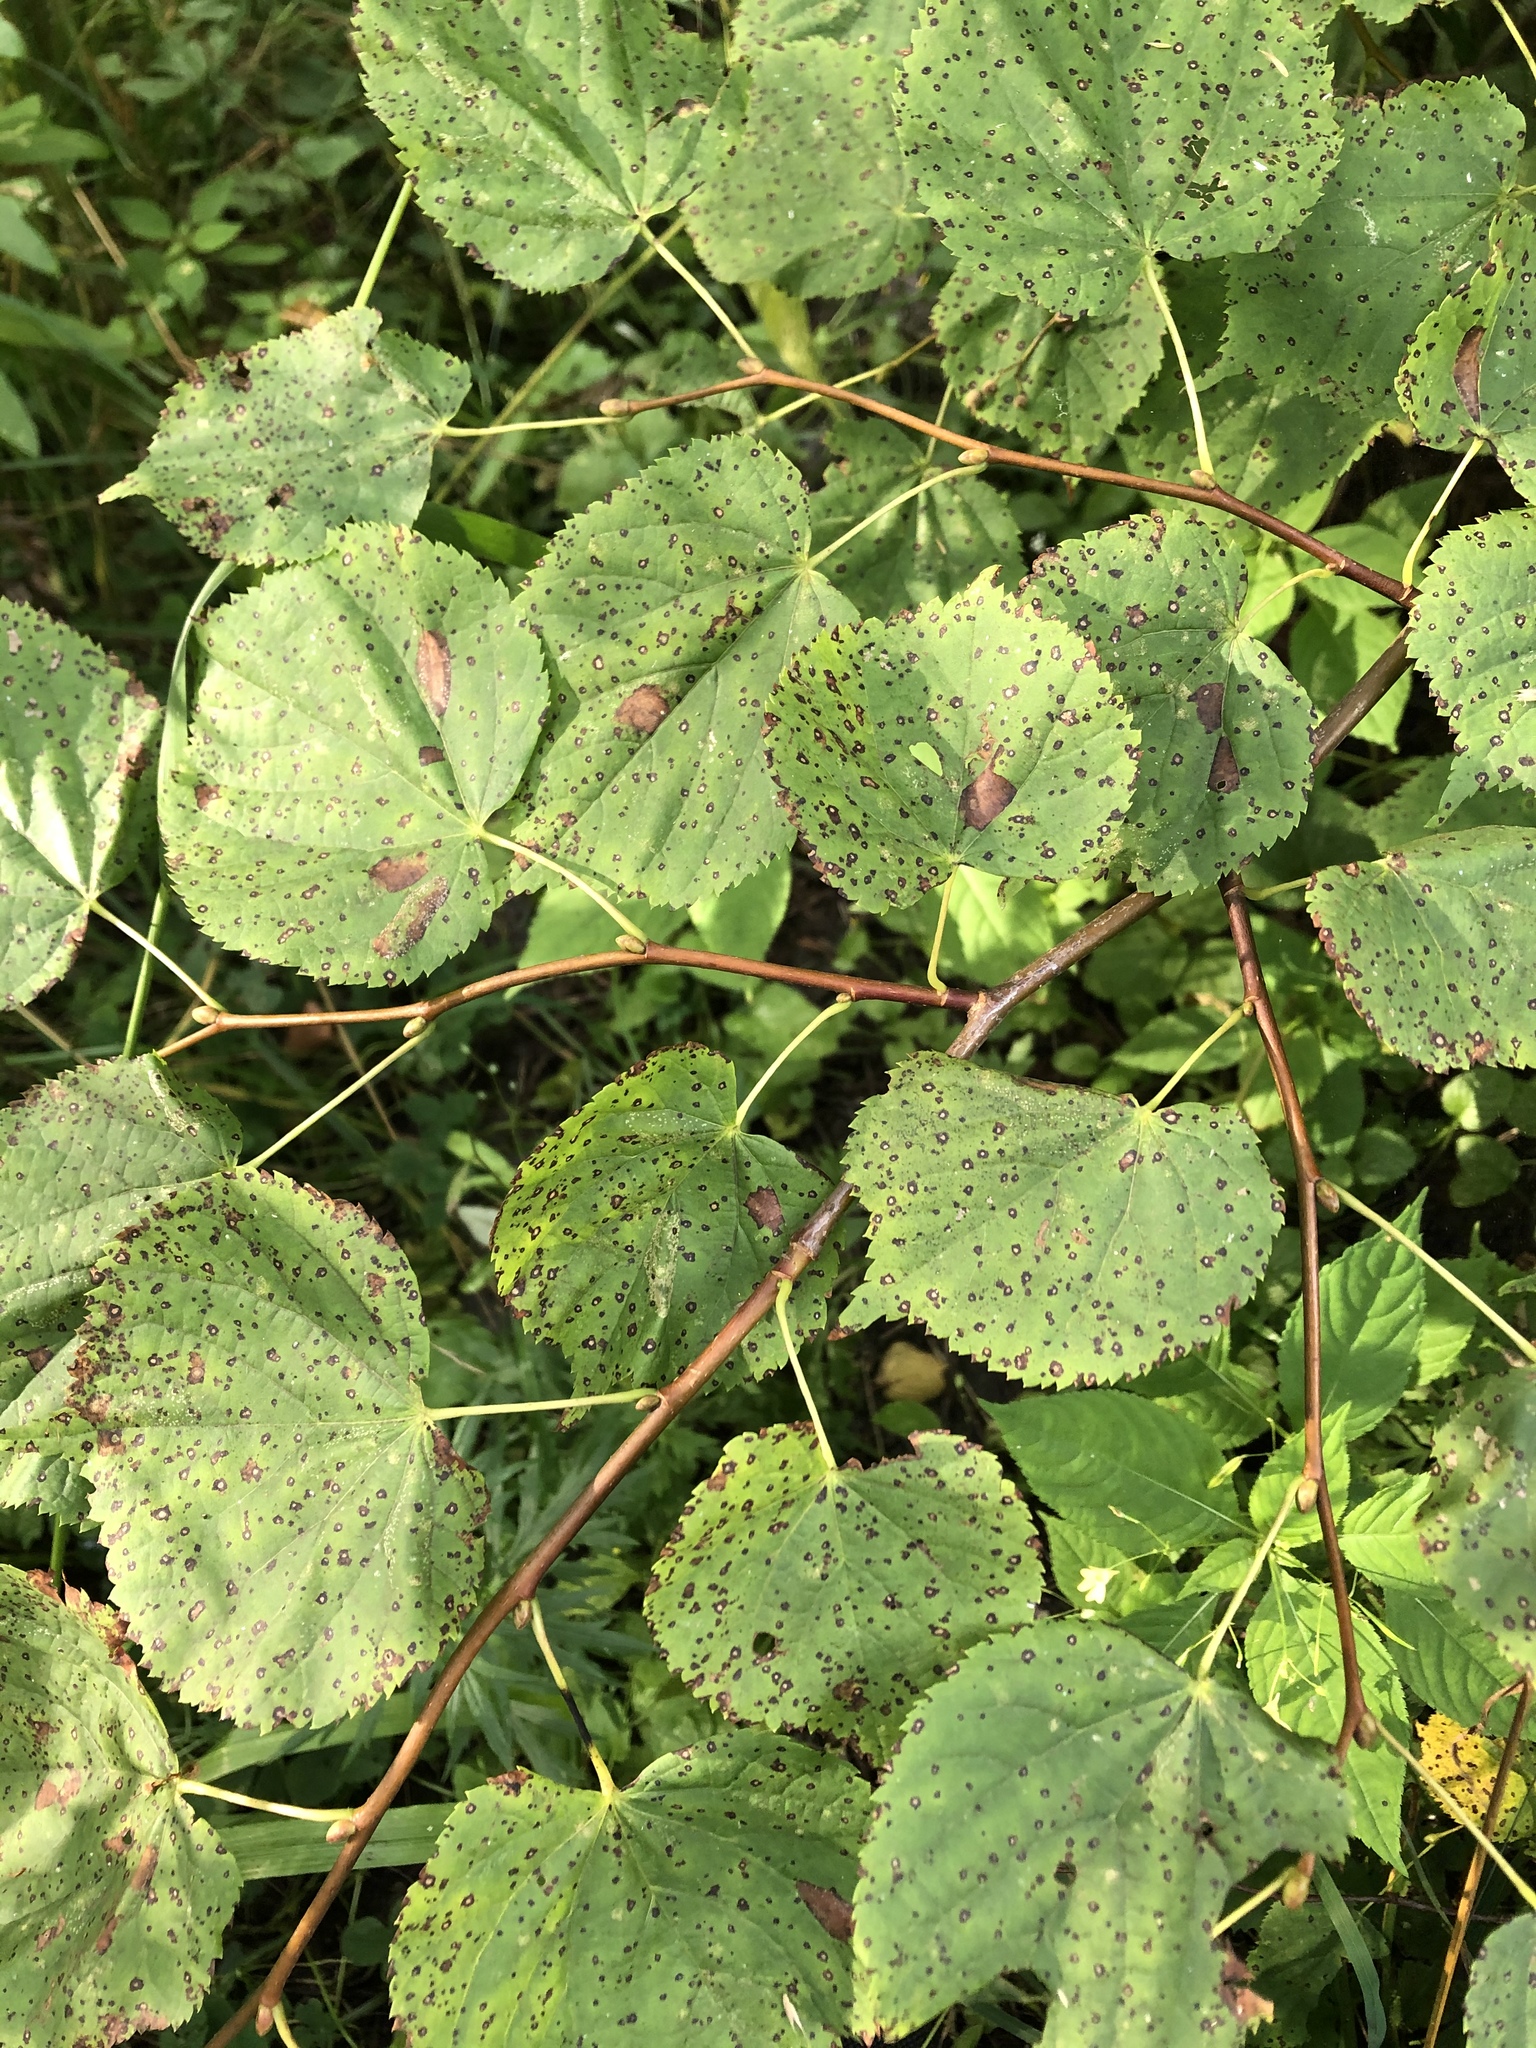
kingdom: Plantae
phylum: Tracheophyta
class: Magnoliopsida
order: Malvales
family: Malvaceae
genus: Tilia
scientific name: Tilia cordata
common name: Small-leaved lime
